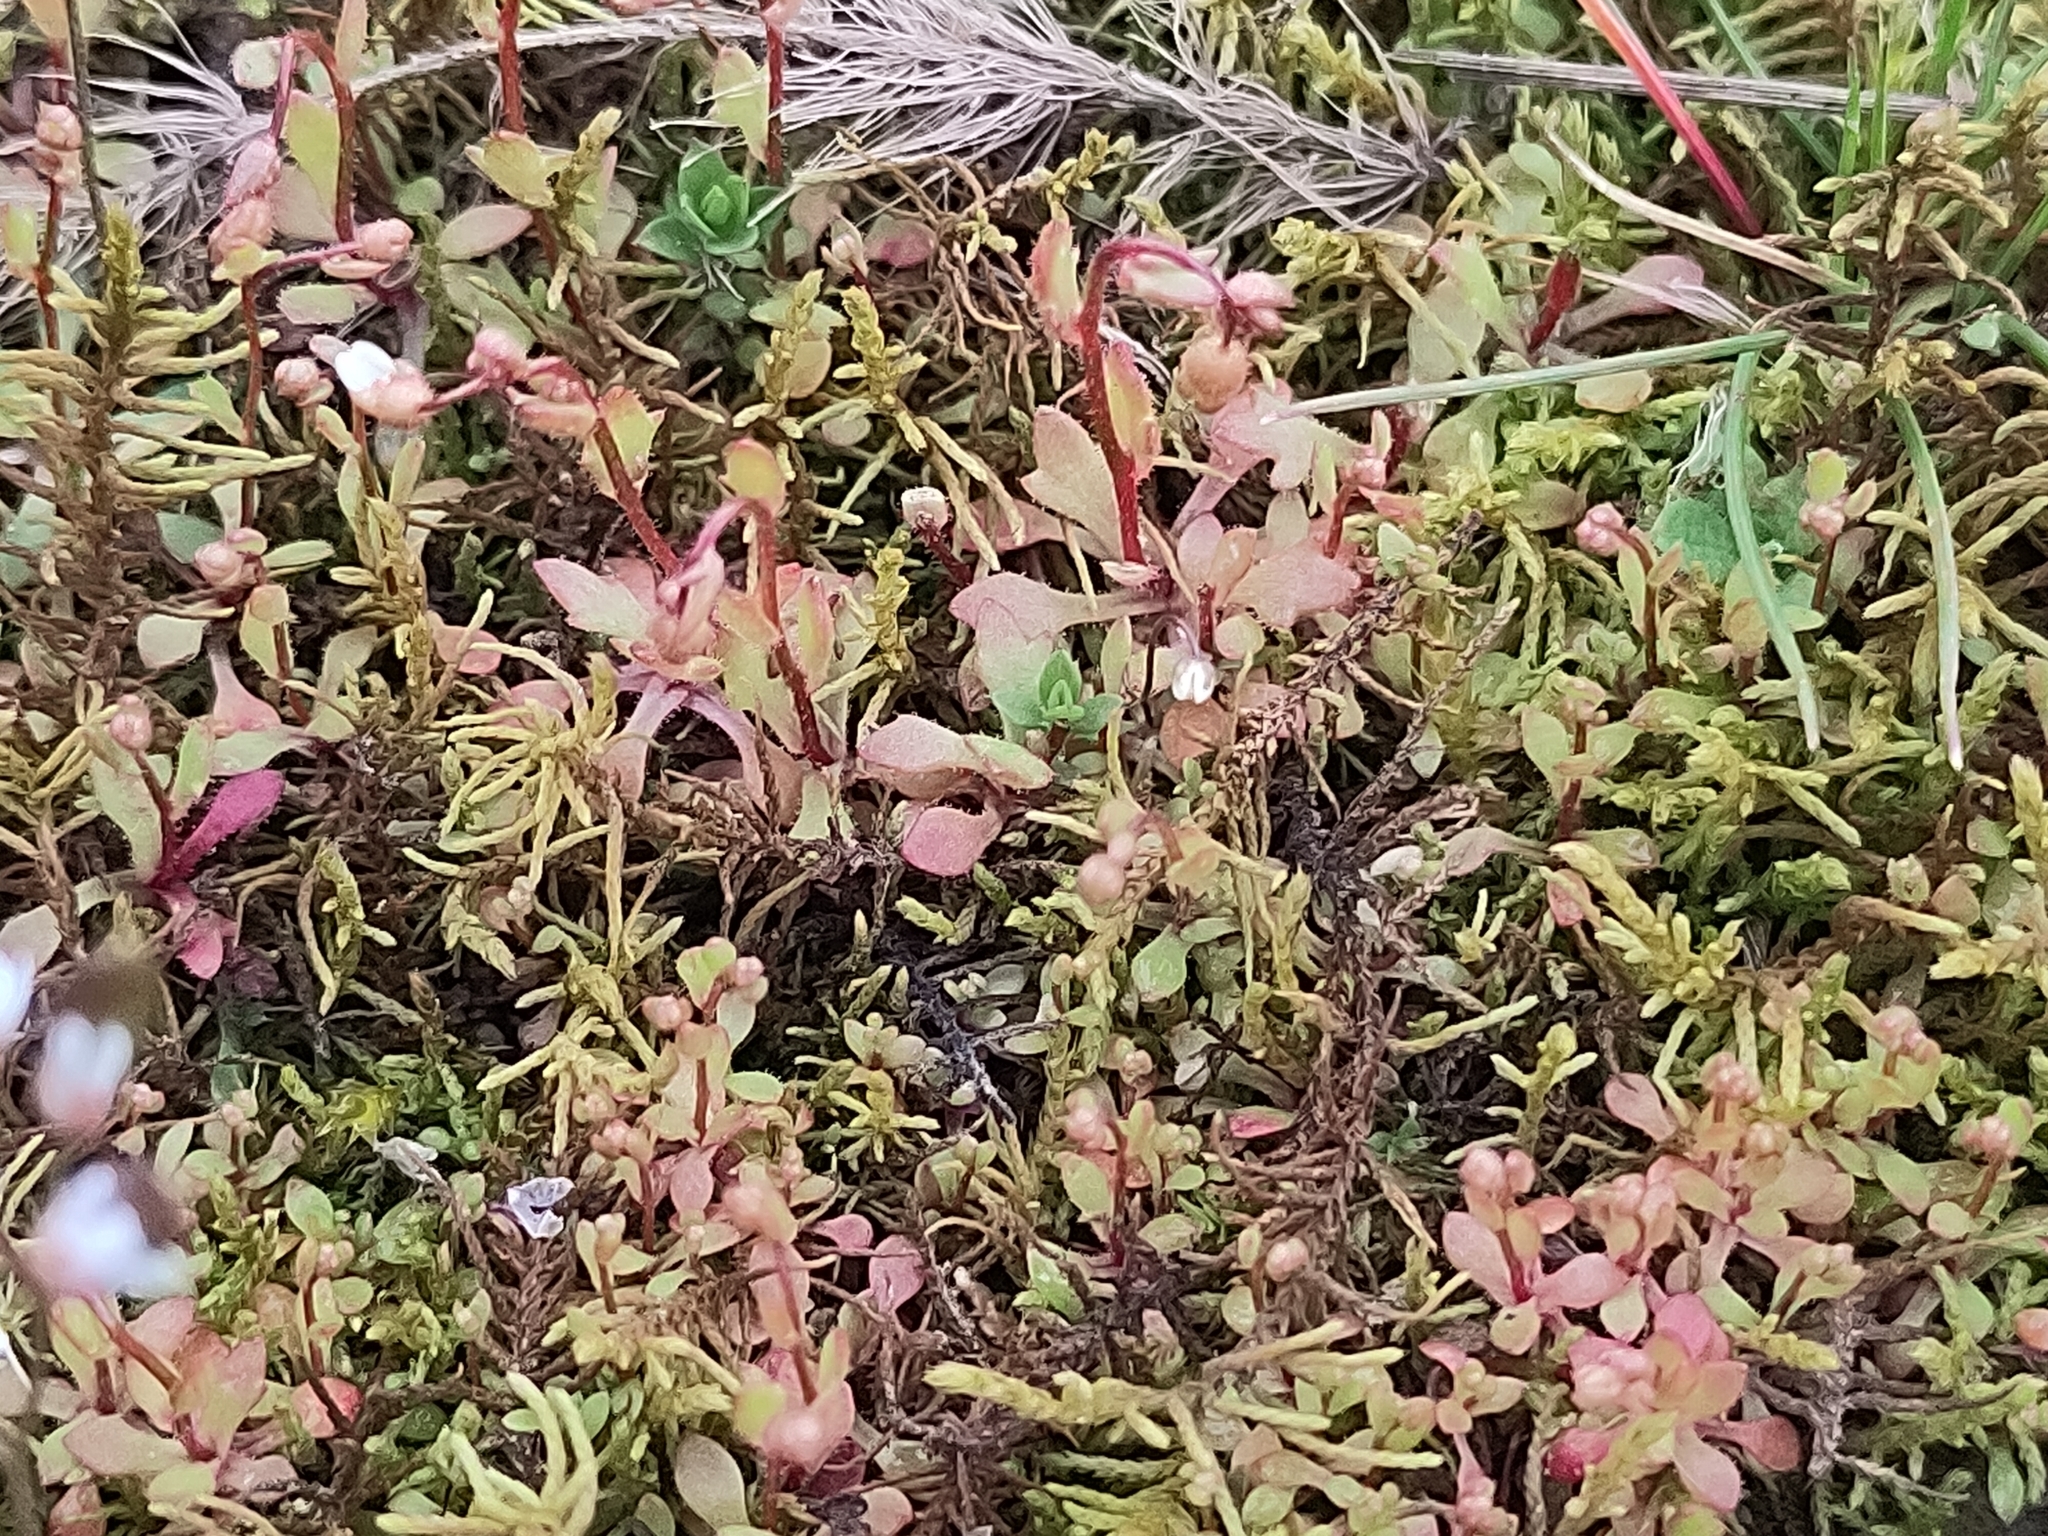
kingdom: Plantae
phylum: Tracheophyta
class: Magnoliopsida
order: Saxifragales
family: Saxifragaceae
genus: Saxifraga
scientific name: Saxifraga tridactylites
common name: Rue-leaved saxifrage
